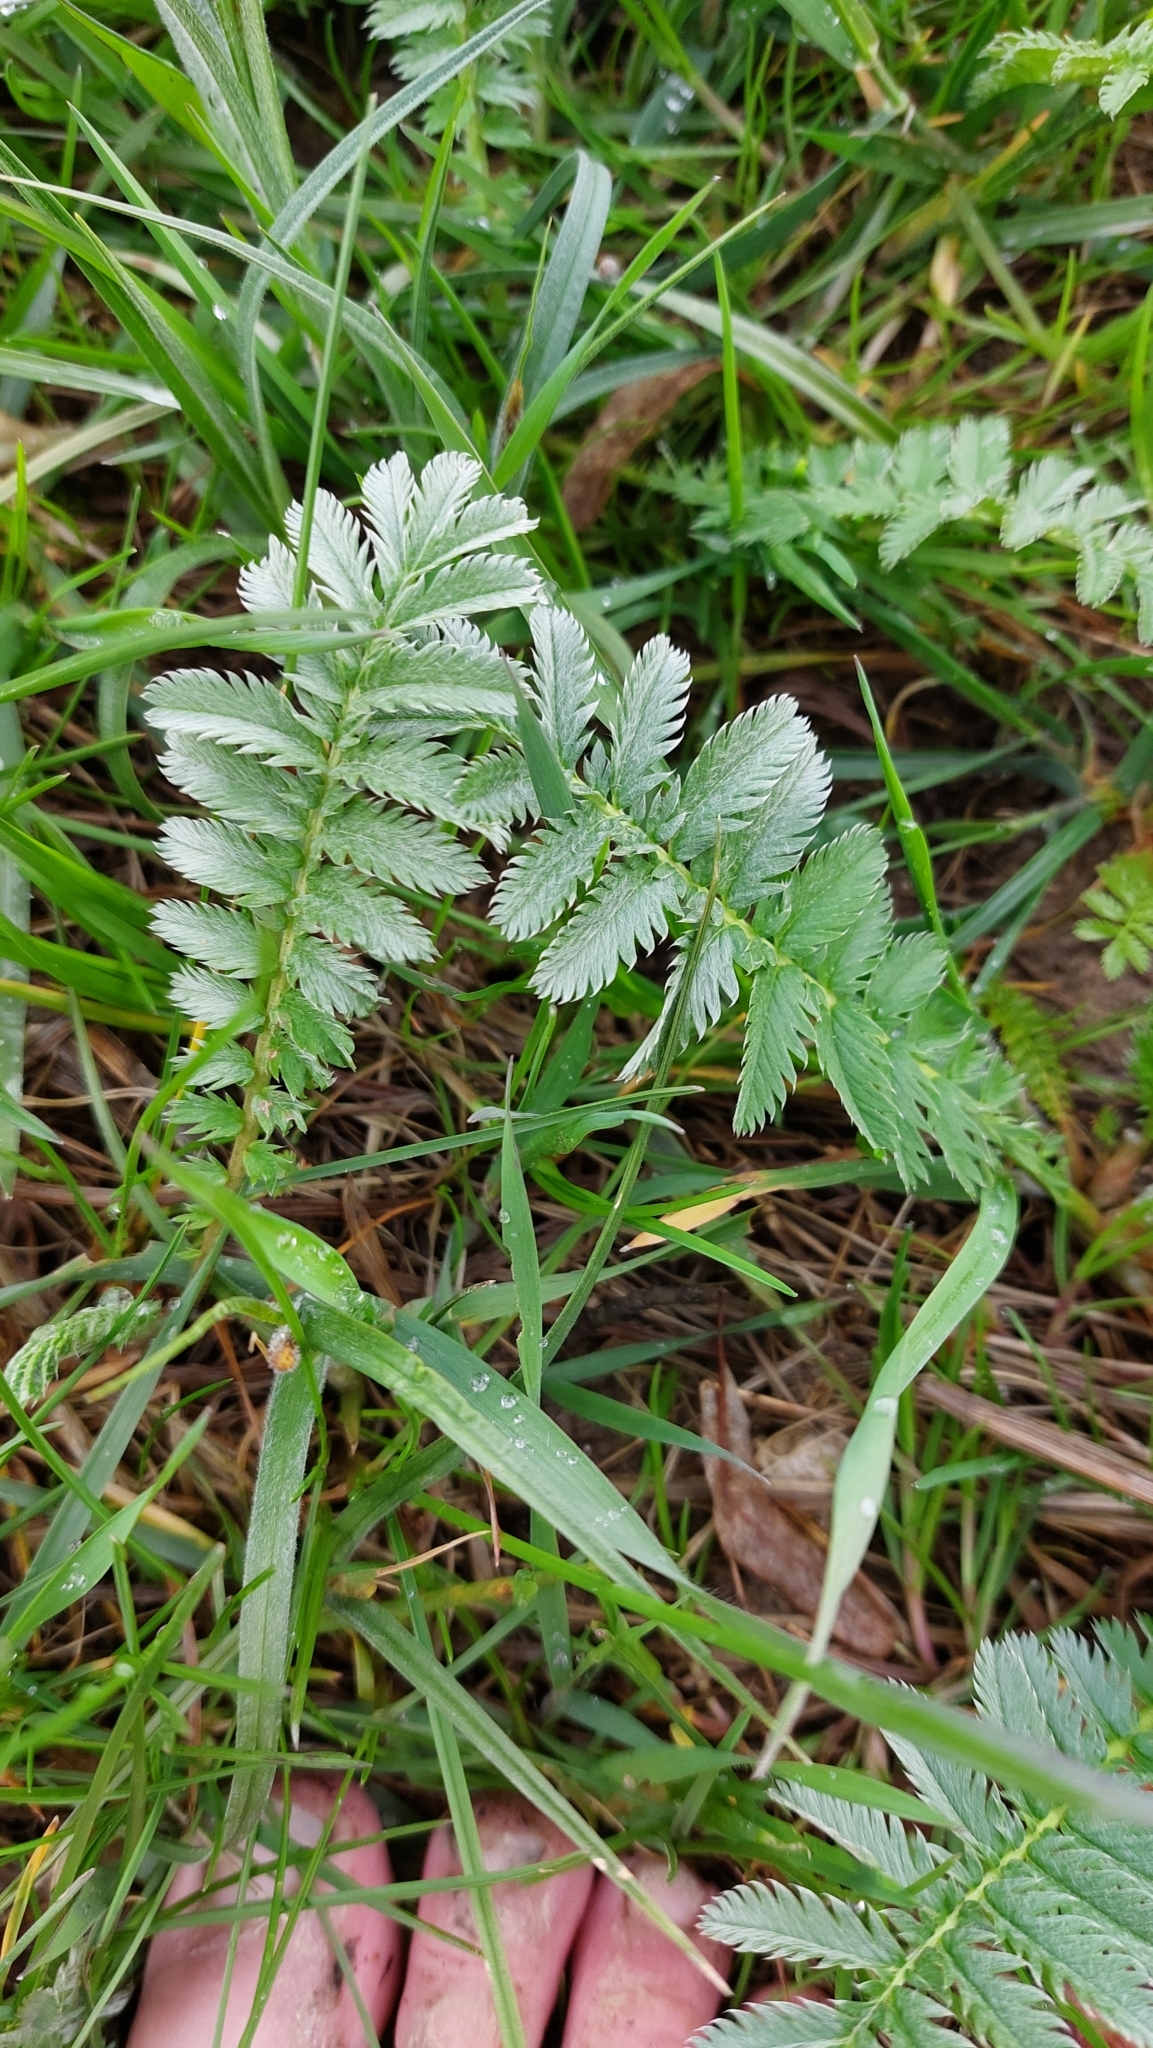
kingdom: Plantae
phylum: Tracheophyta
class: Magnoliopsida
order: Rosales
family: Rosaceae
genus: Argentina
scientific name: Argentina anserina
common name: Common silverweed
